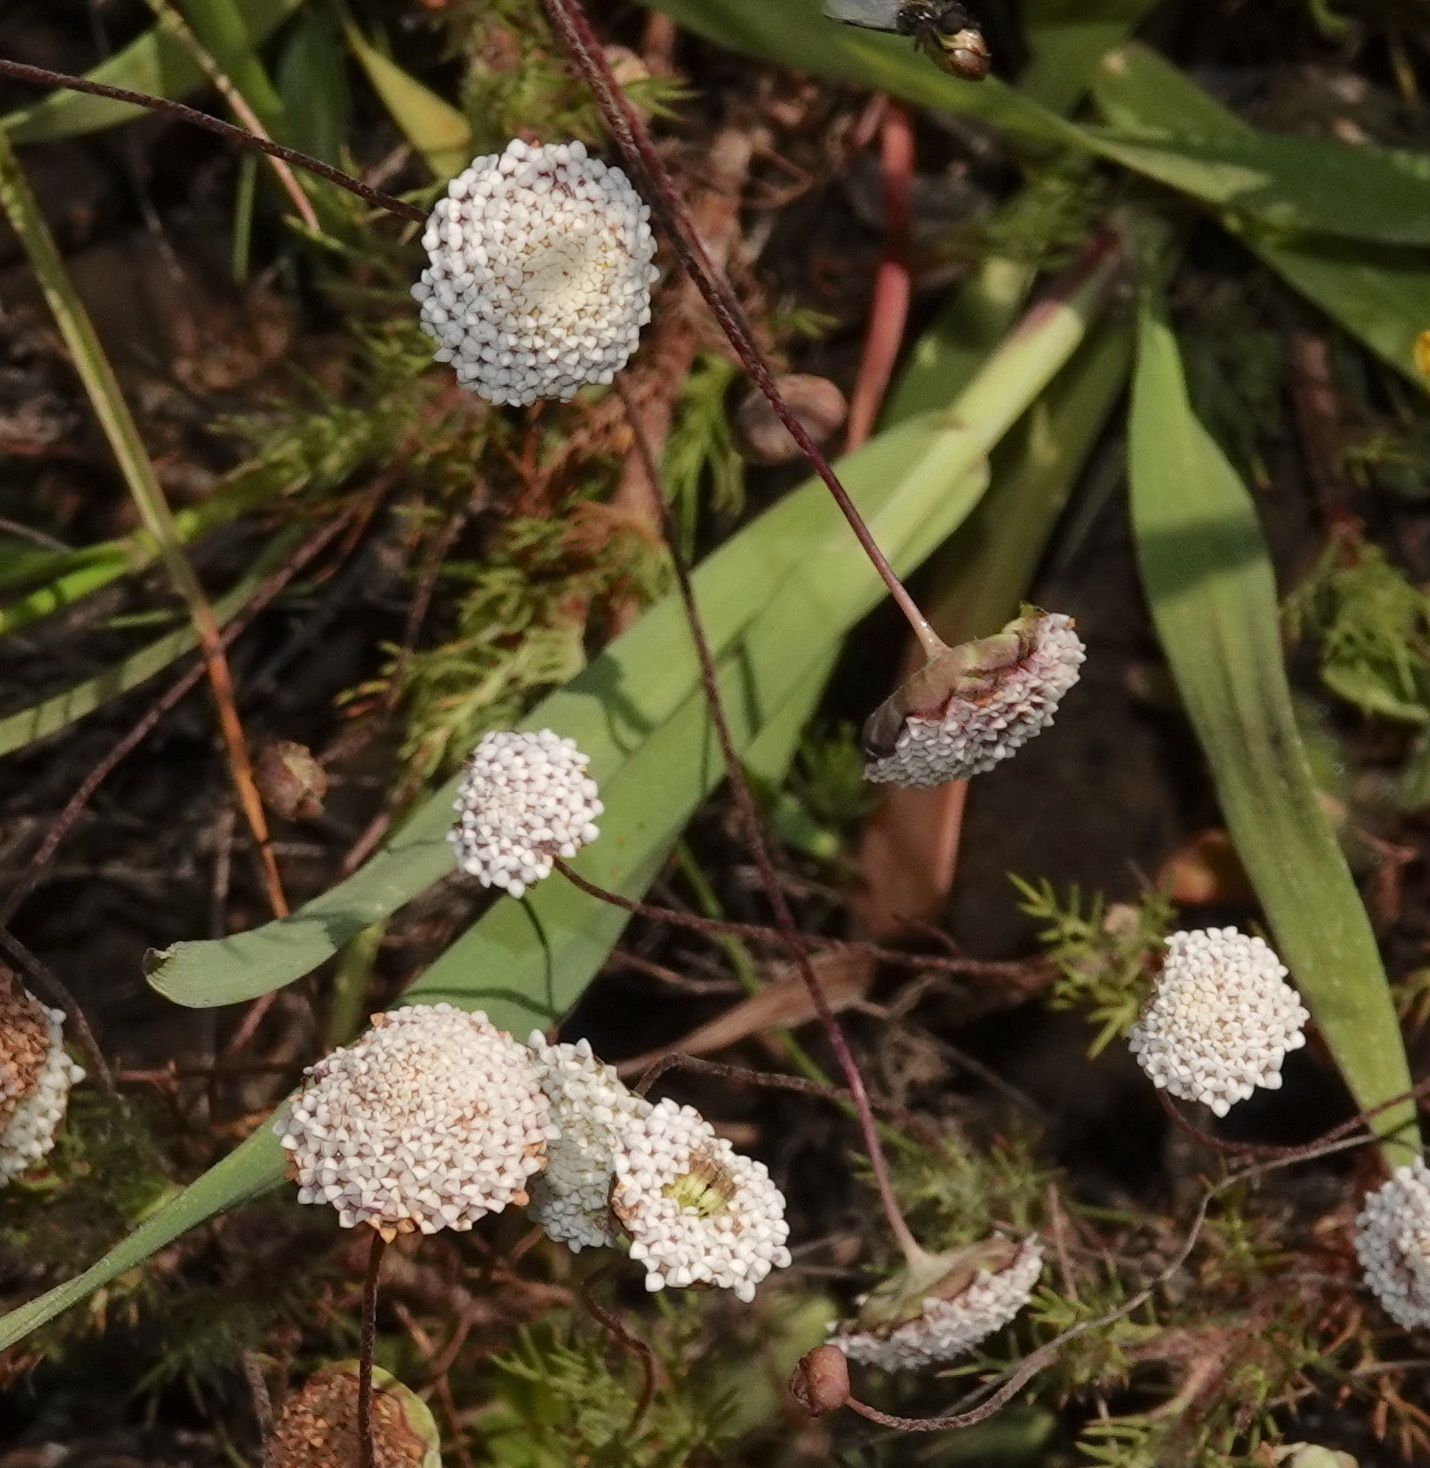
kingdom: Plantae
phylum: Tracheophyta
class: Magnoliopsida
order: Asterales
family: Asteraceae
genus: Cotula
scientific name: Cotula nudicaulis
